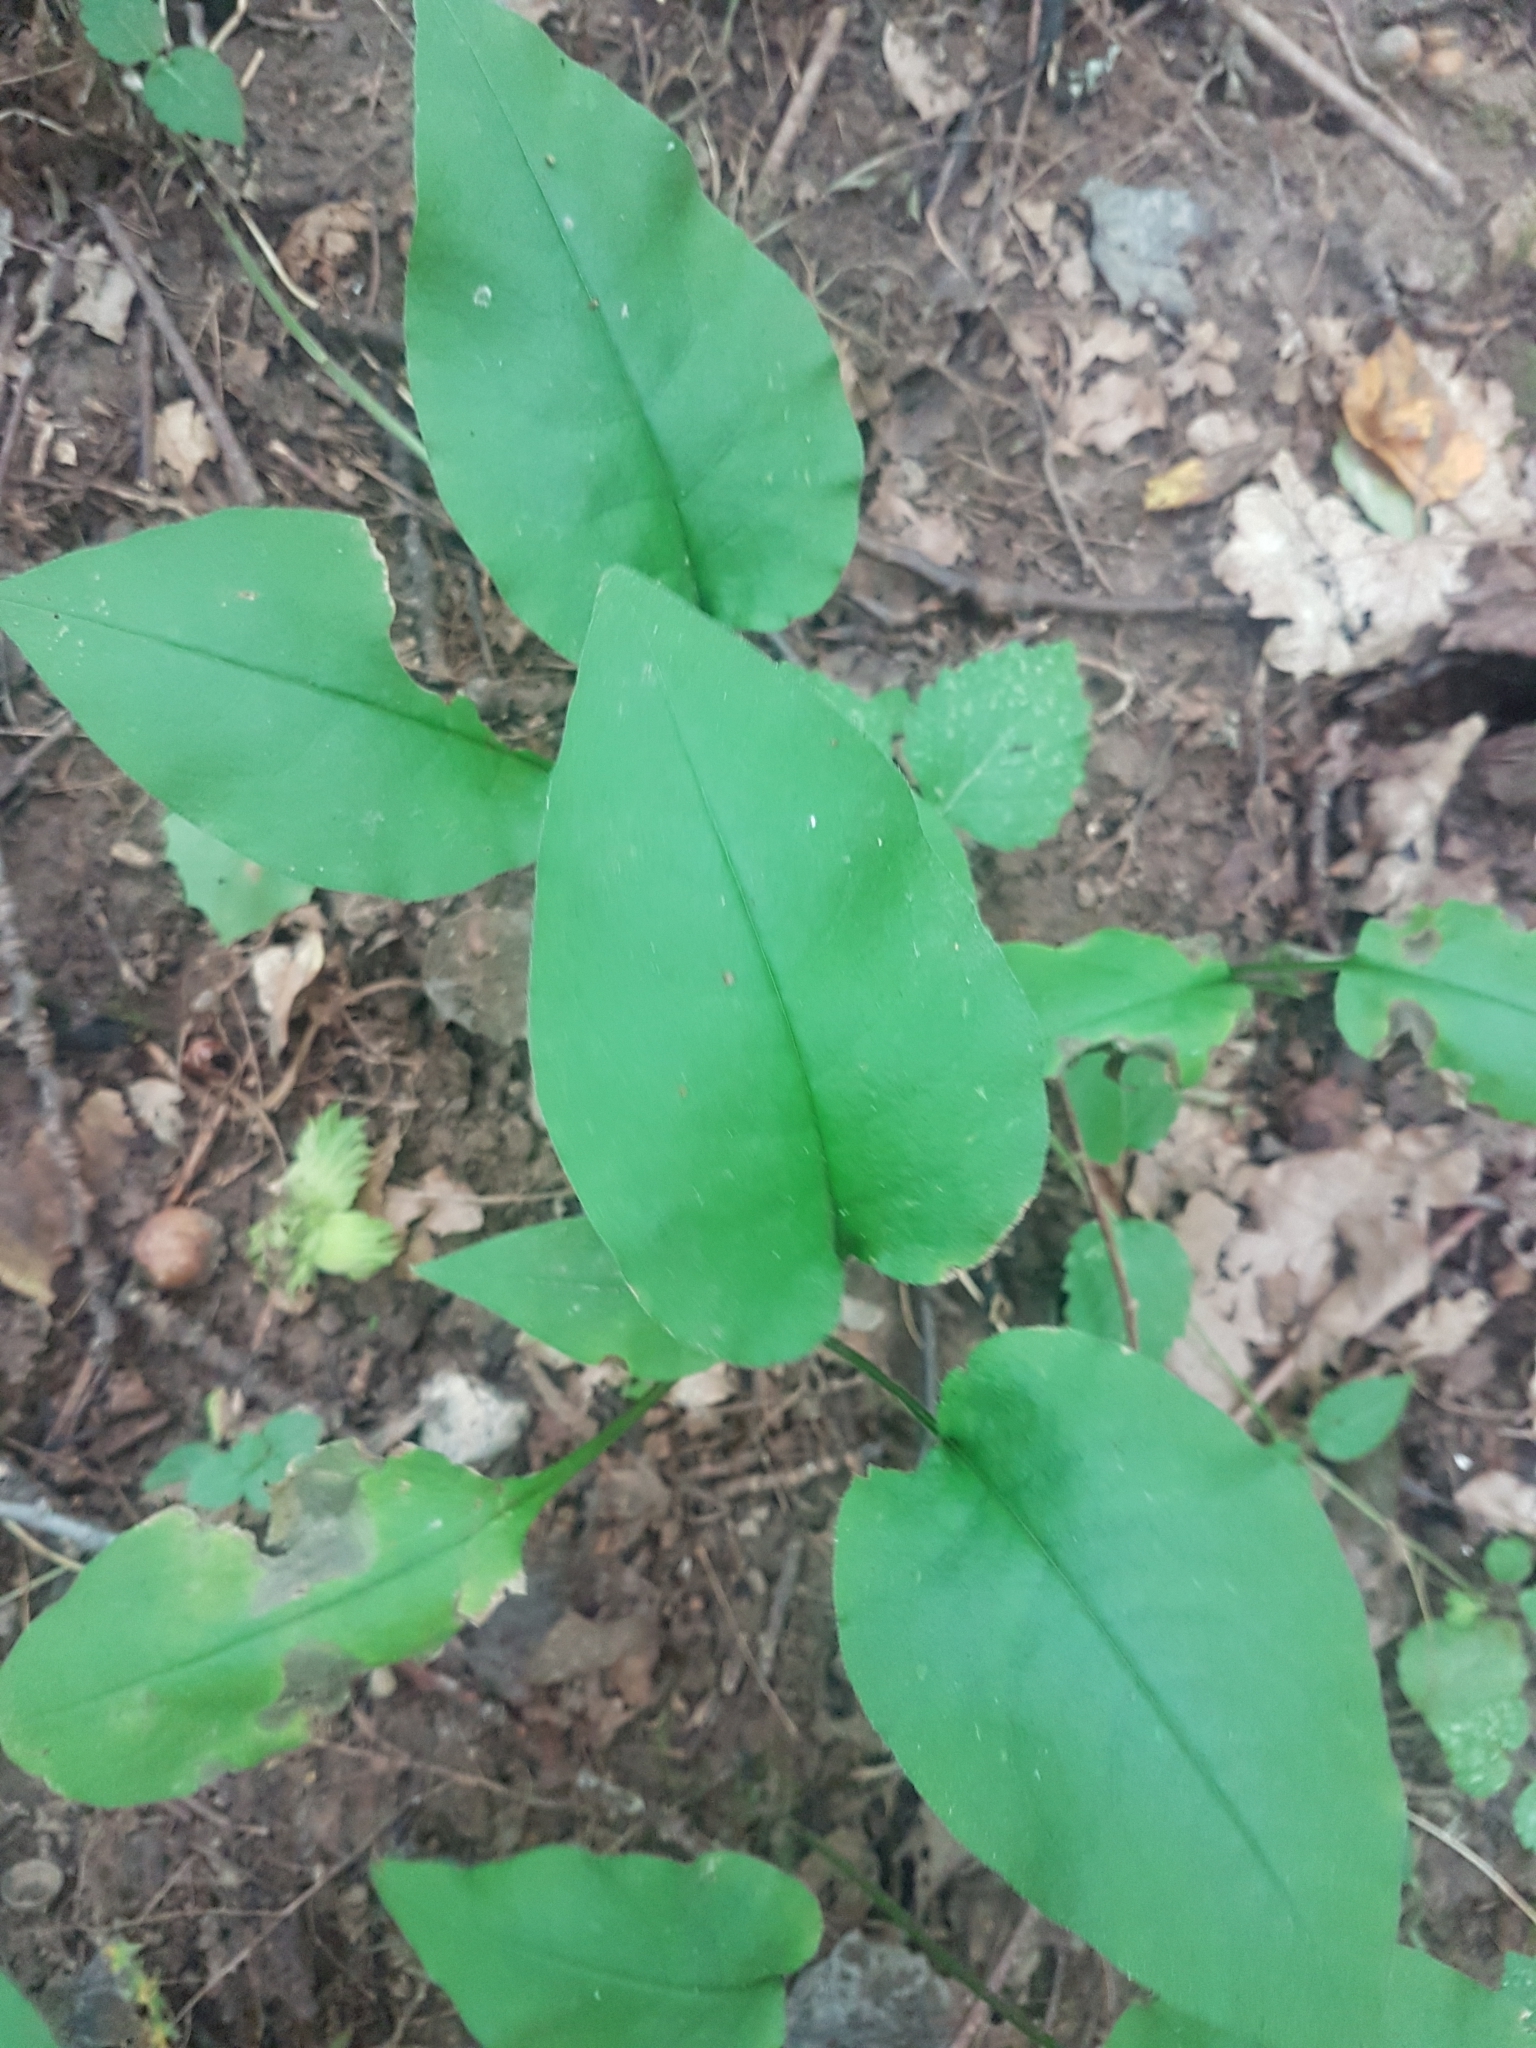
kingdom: Plantae
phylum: Tracheophyta
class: Magnoliopsida
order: Boraginales
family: Boraginaceae
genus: Pulmonaria
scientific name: Pulmonaria obscura
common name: Suffolk lungwort
